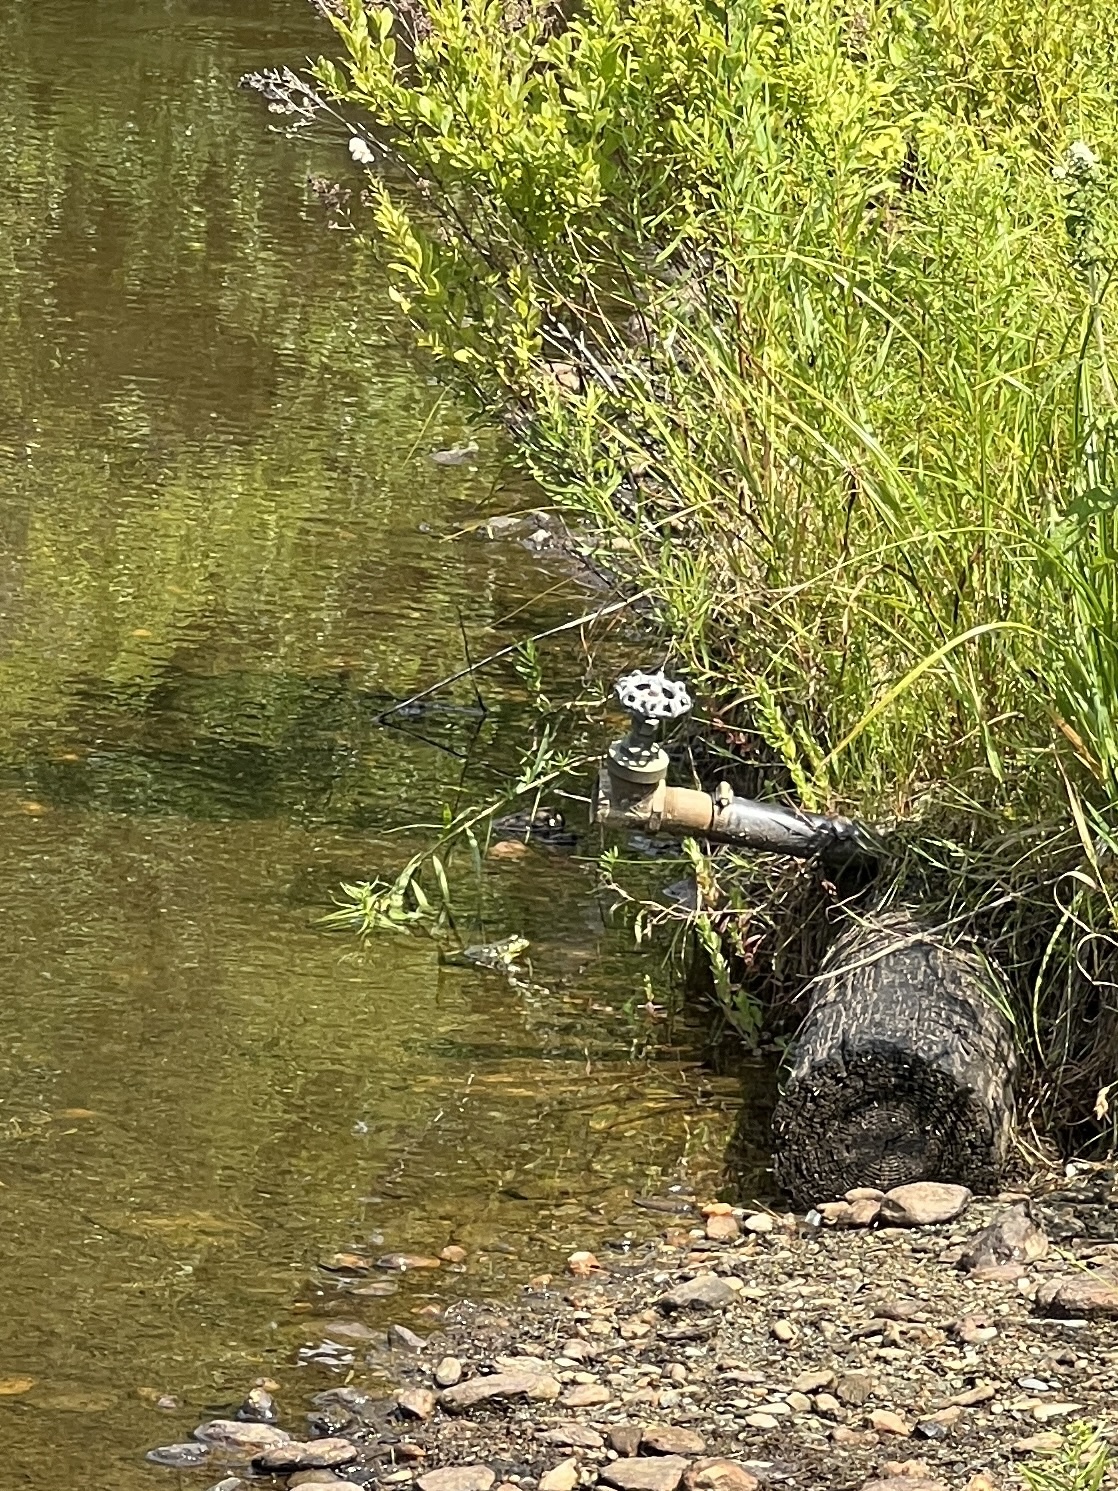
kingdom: Animalia
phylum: Chordata
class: Amphibia
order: Anura
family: Ranidae
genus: Lithobates
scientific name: Lithobates clamitans
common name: Green frog
